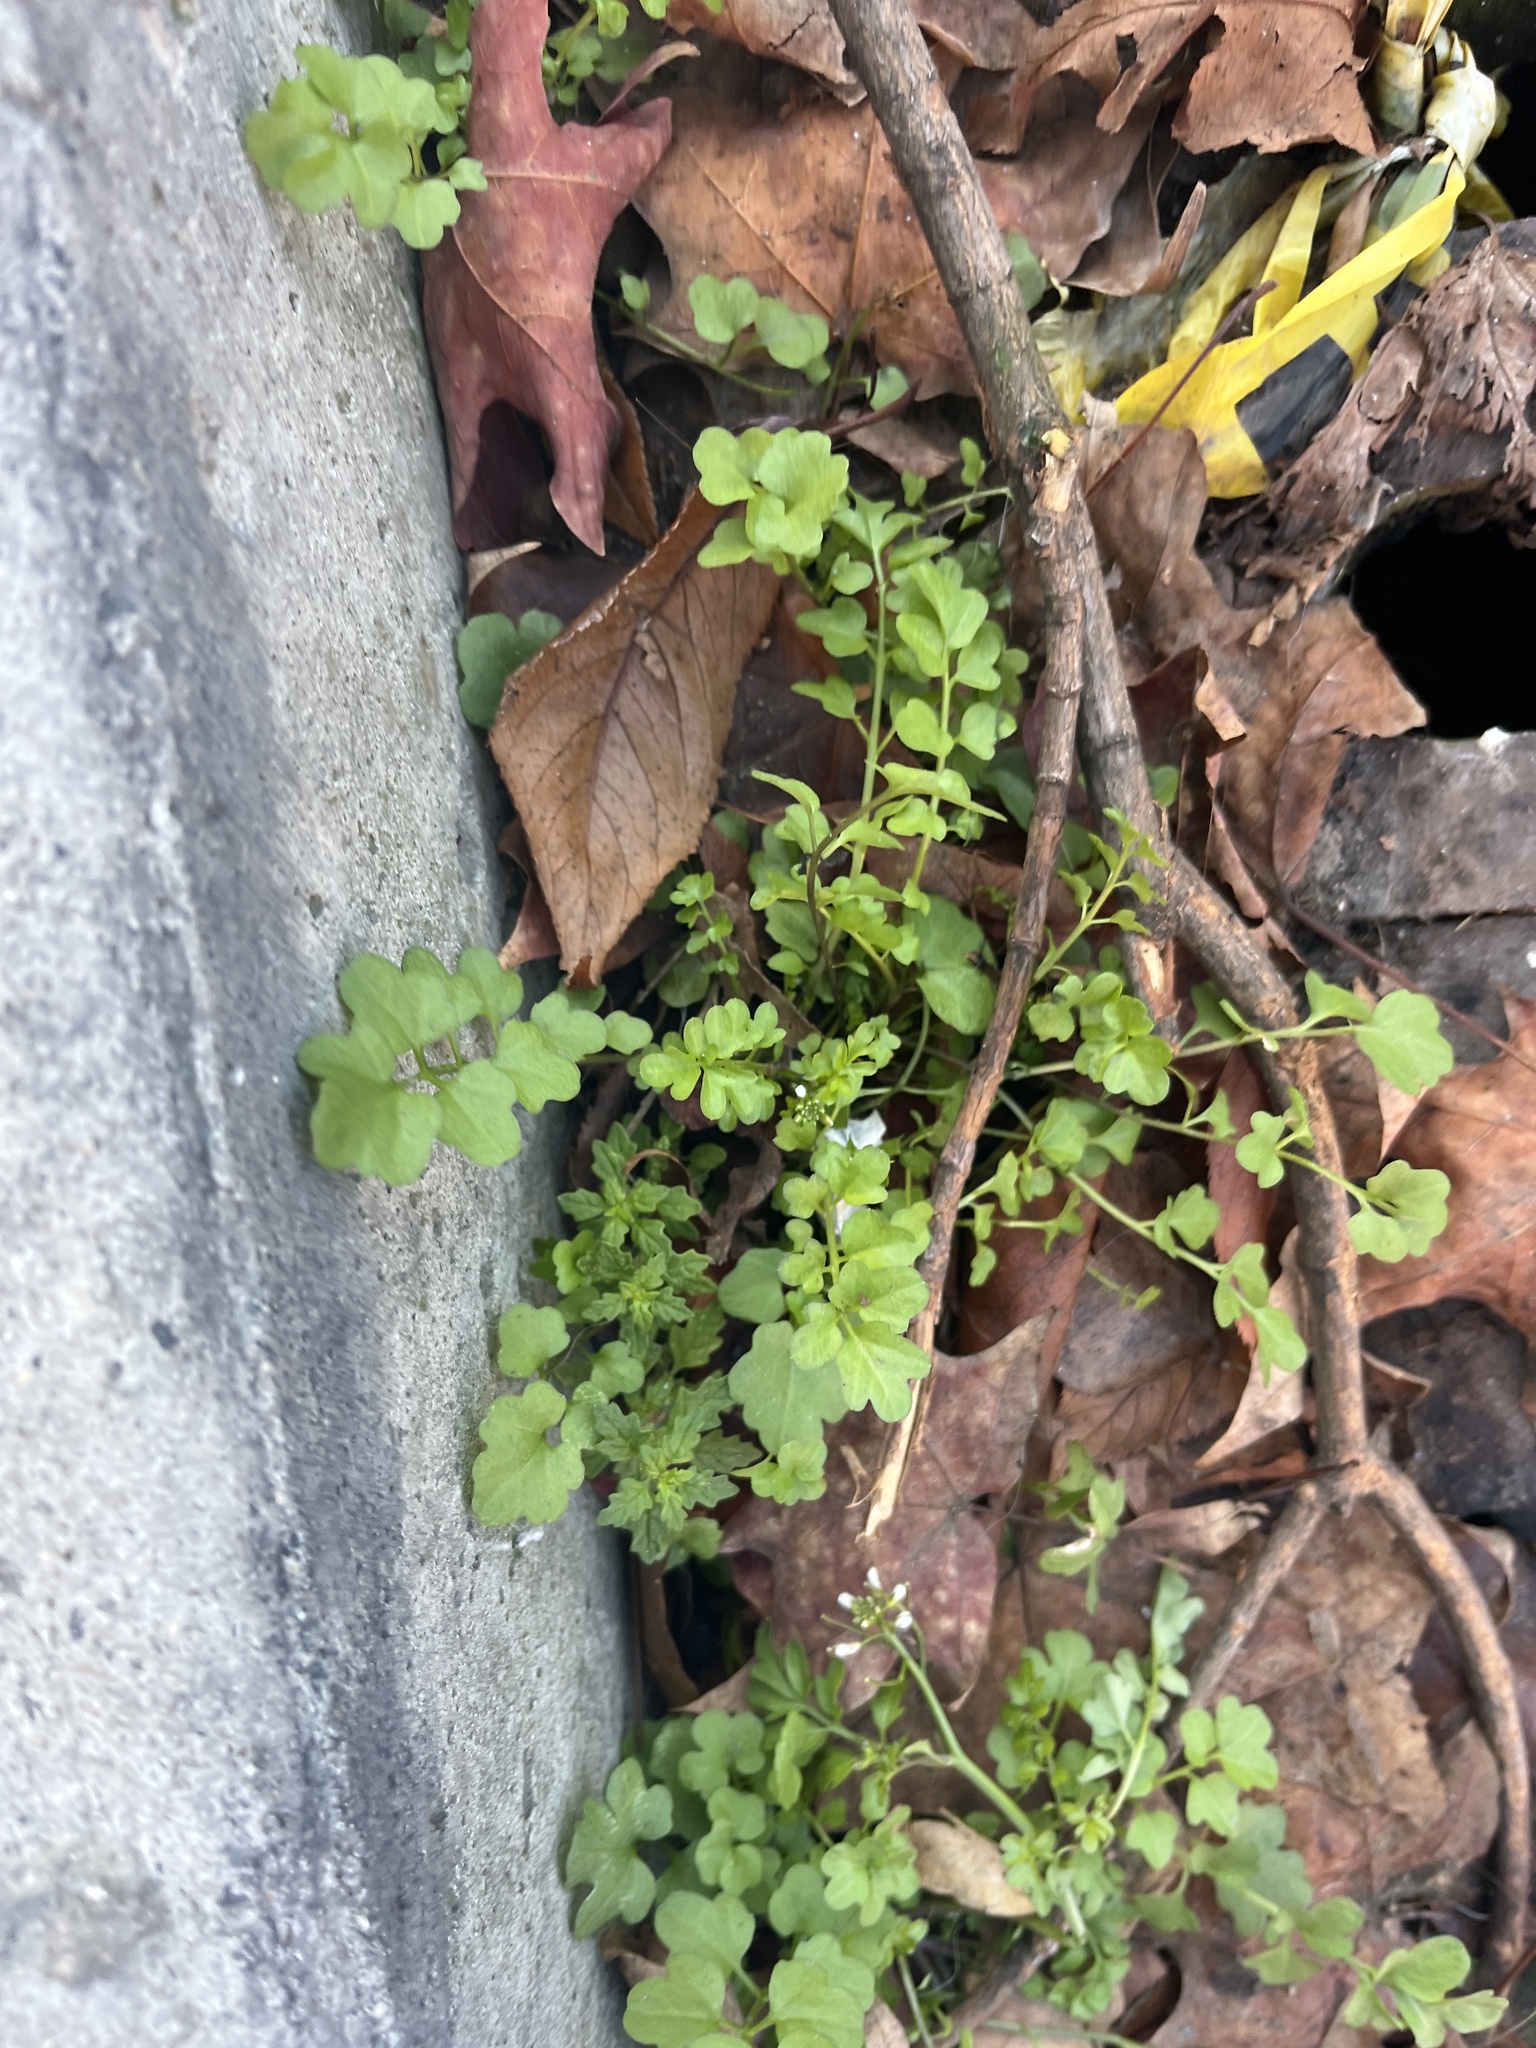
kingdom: Plantae
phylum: Tracheophyta
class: Magnoliopsida
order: Brassicales
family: Brassicaceae
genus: Cardamine
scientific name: Cardamine occulta
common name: Asian wavy bittercress
